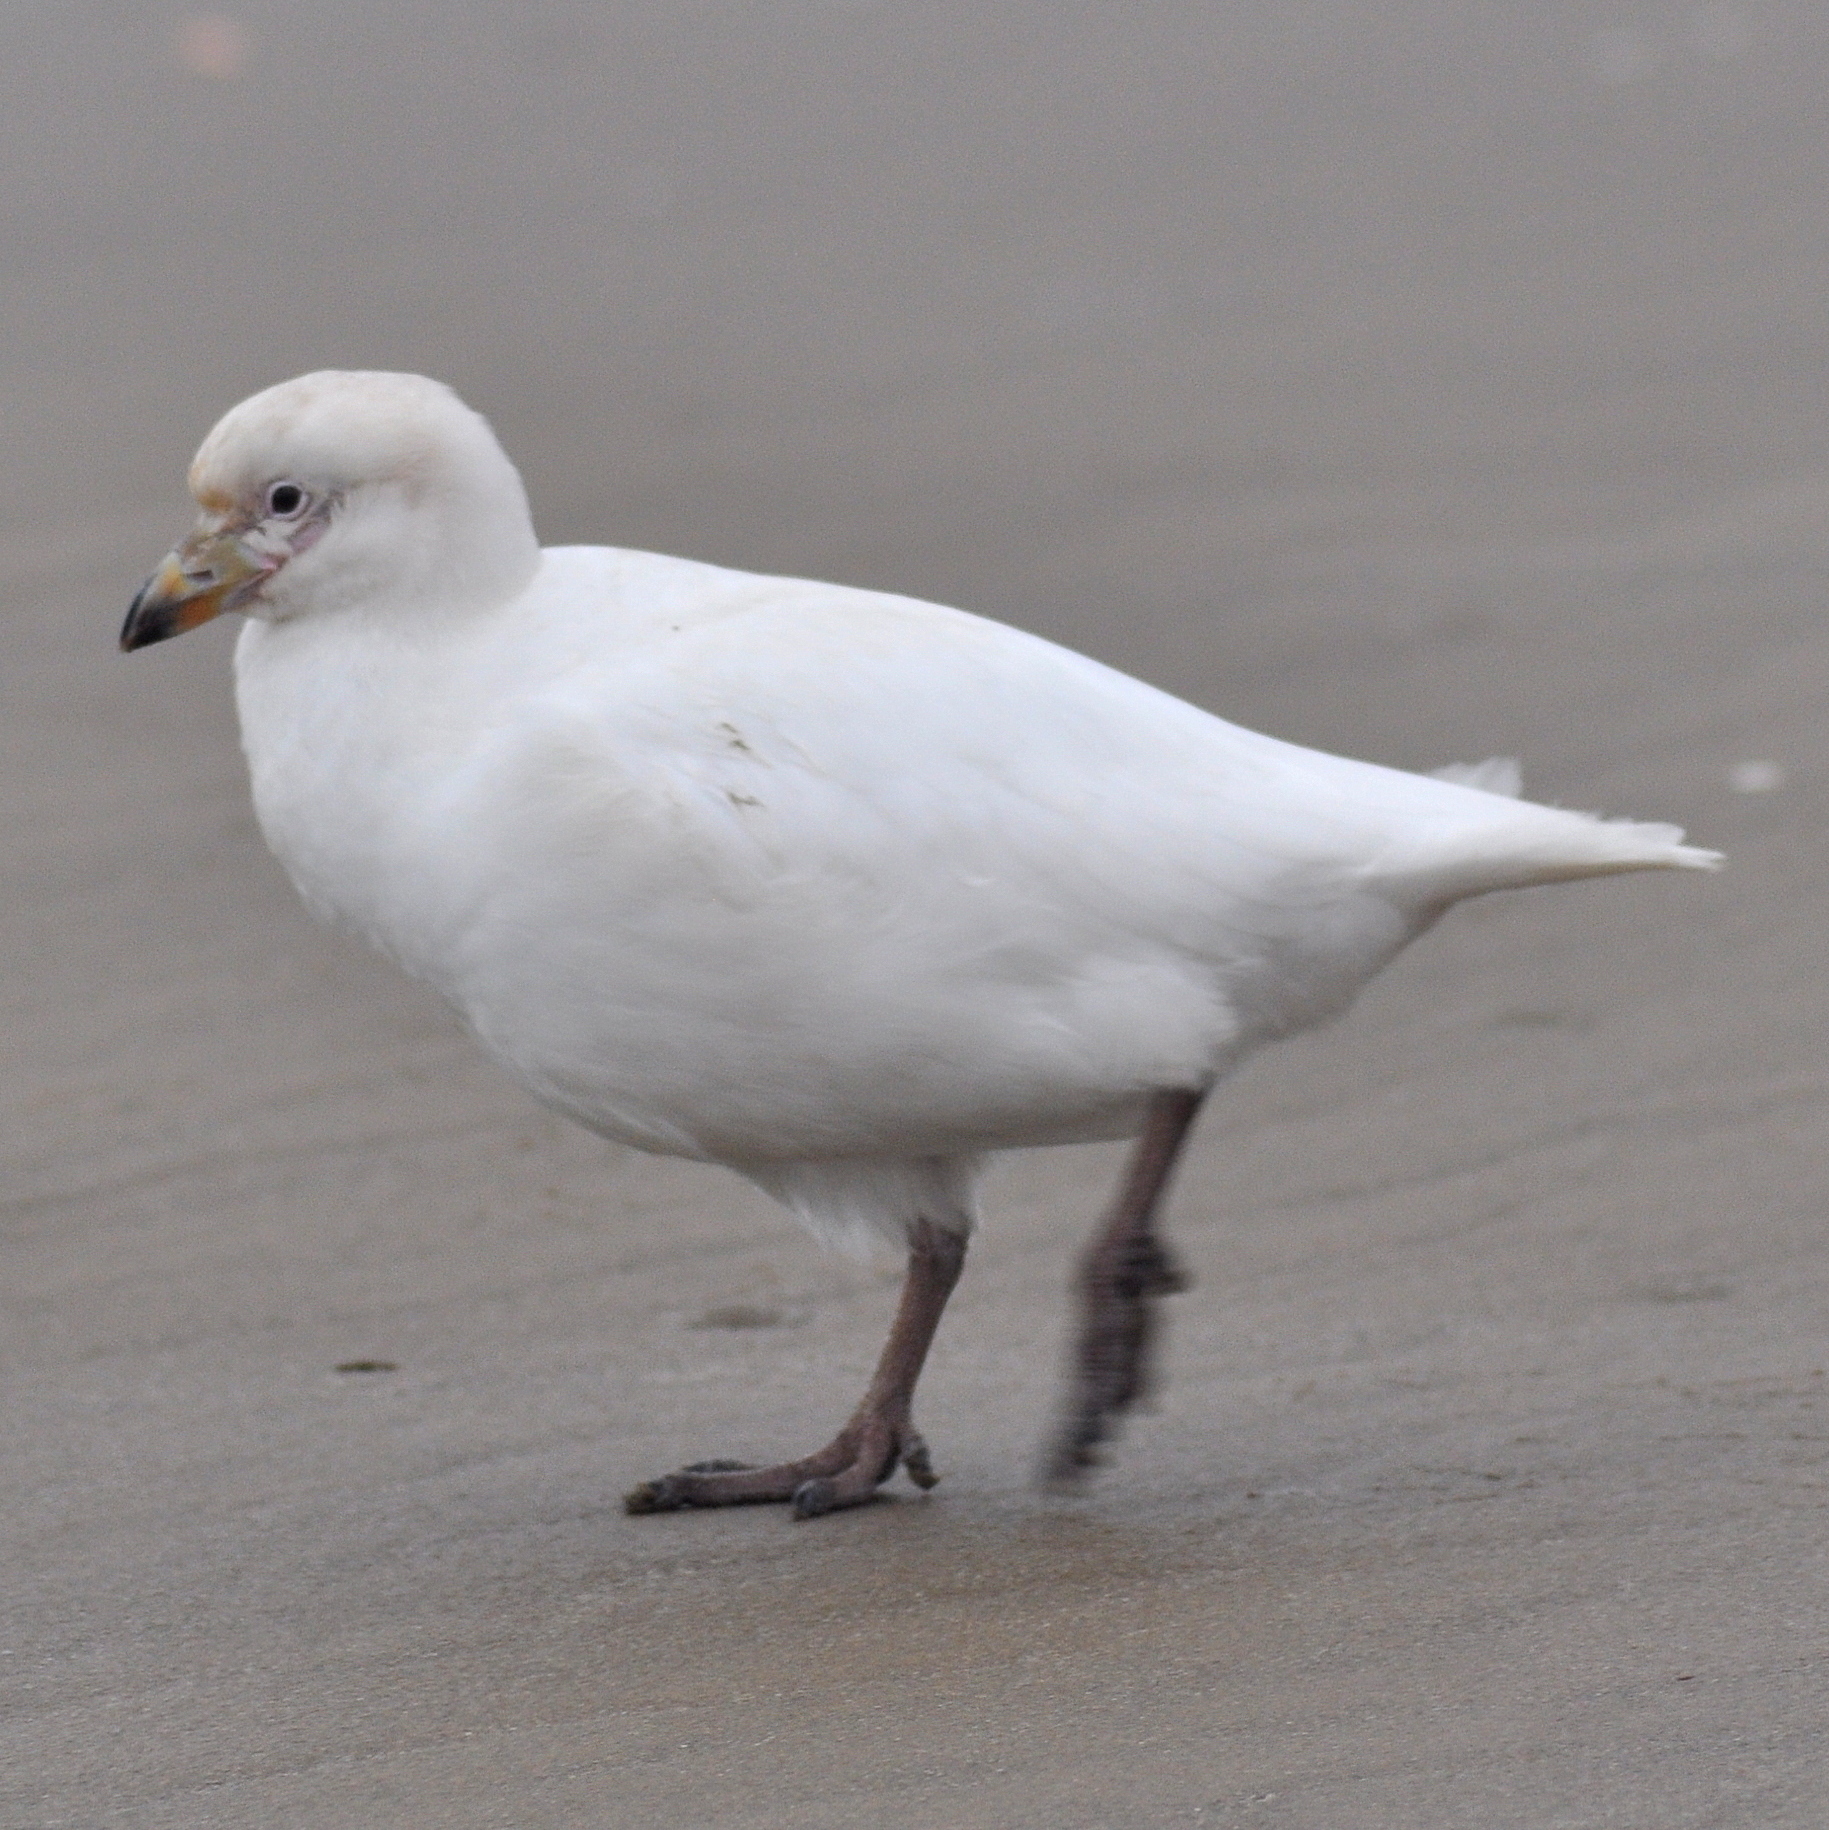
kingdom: Animalia
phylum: Chordata
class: Aves
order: Charadriiformes
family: Chionidae
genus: Chionis
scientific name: Chionis albus
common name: Snowy sheathbill
